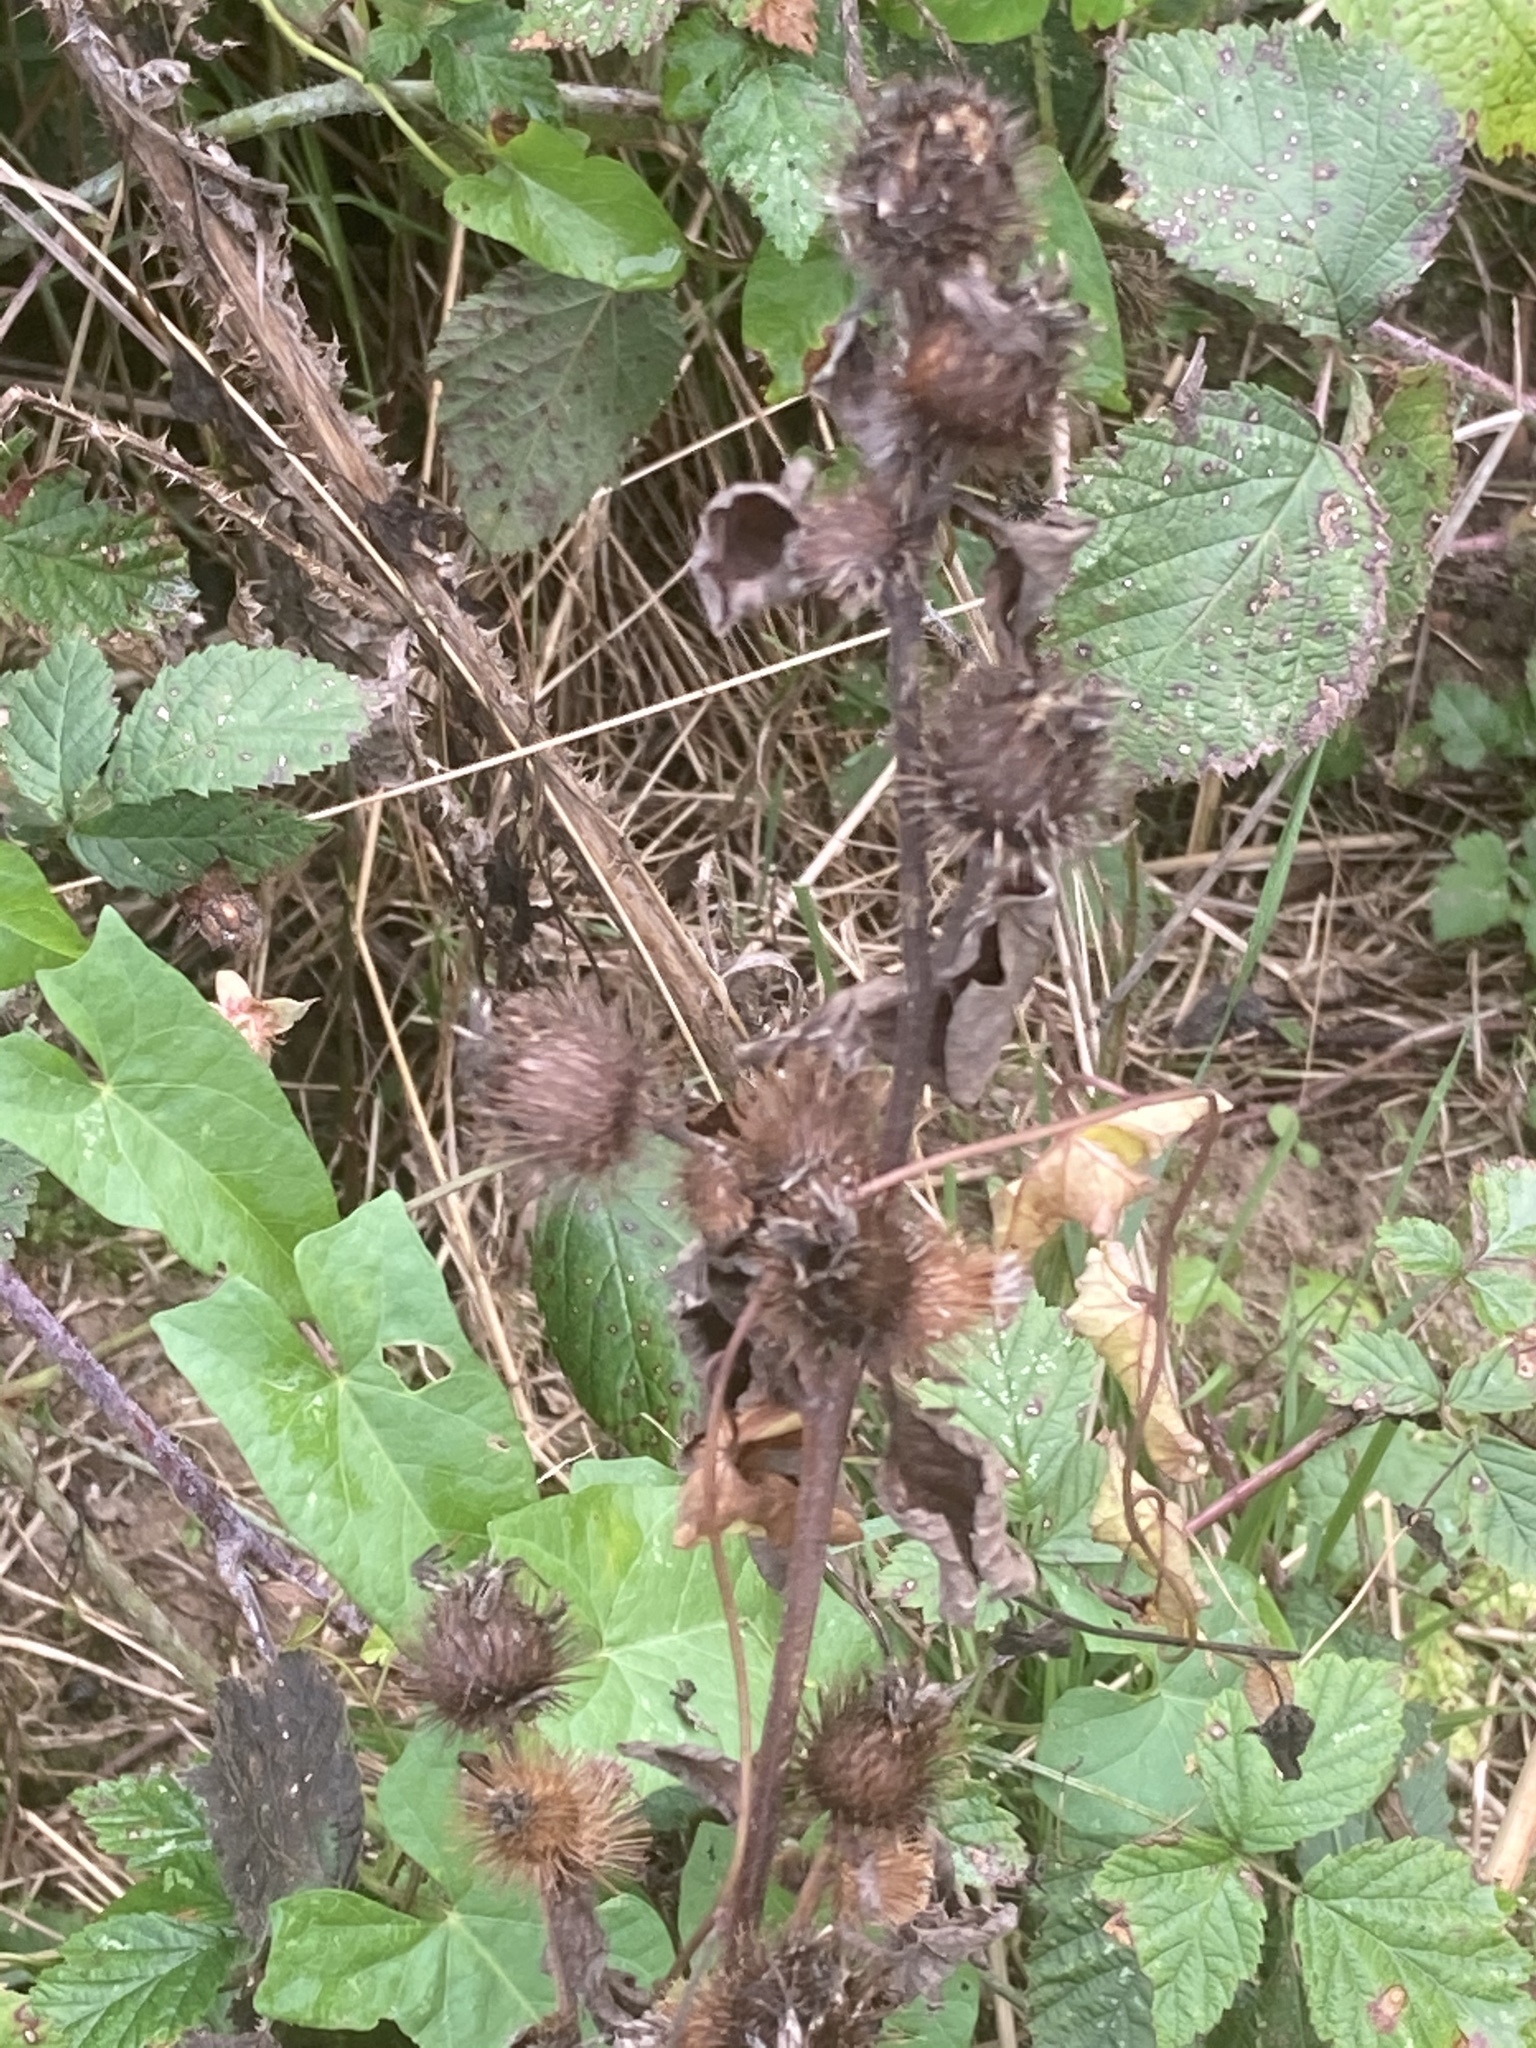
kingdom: Plantae
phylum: Tracheophyta
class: Magnoliopsida
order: Asterales
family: Asteraceae
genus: Arctium
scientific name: Arctium minus
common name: Lesser burdock
